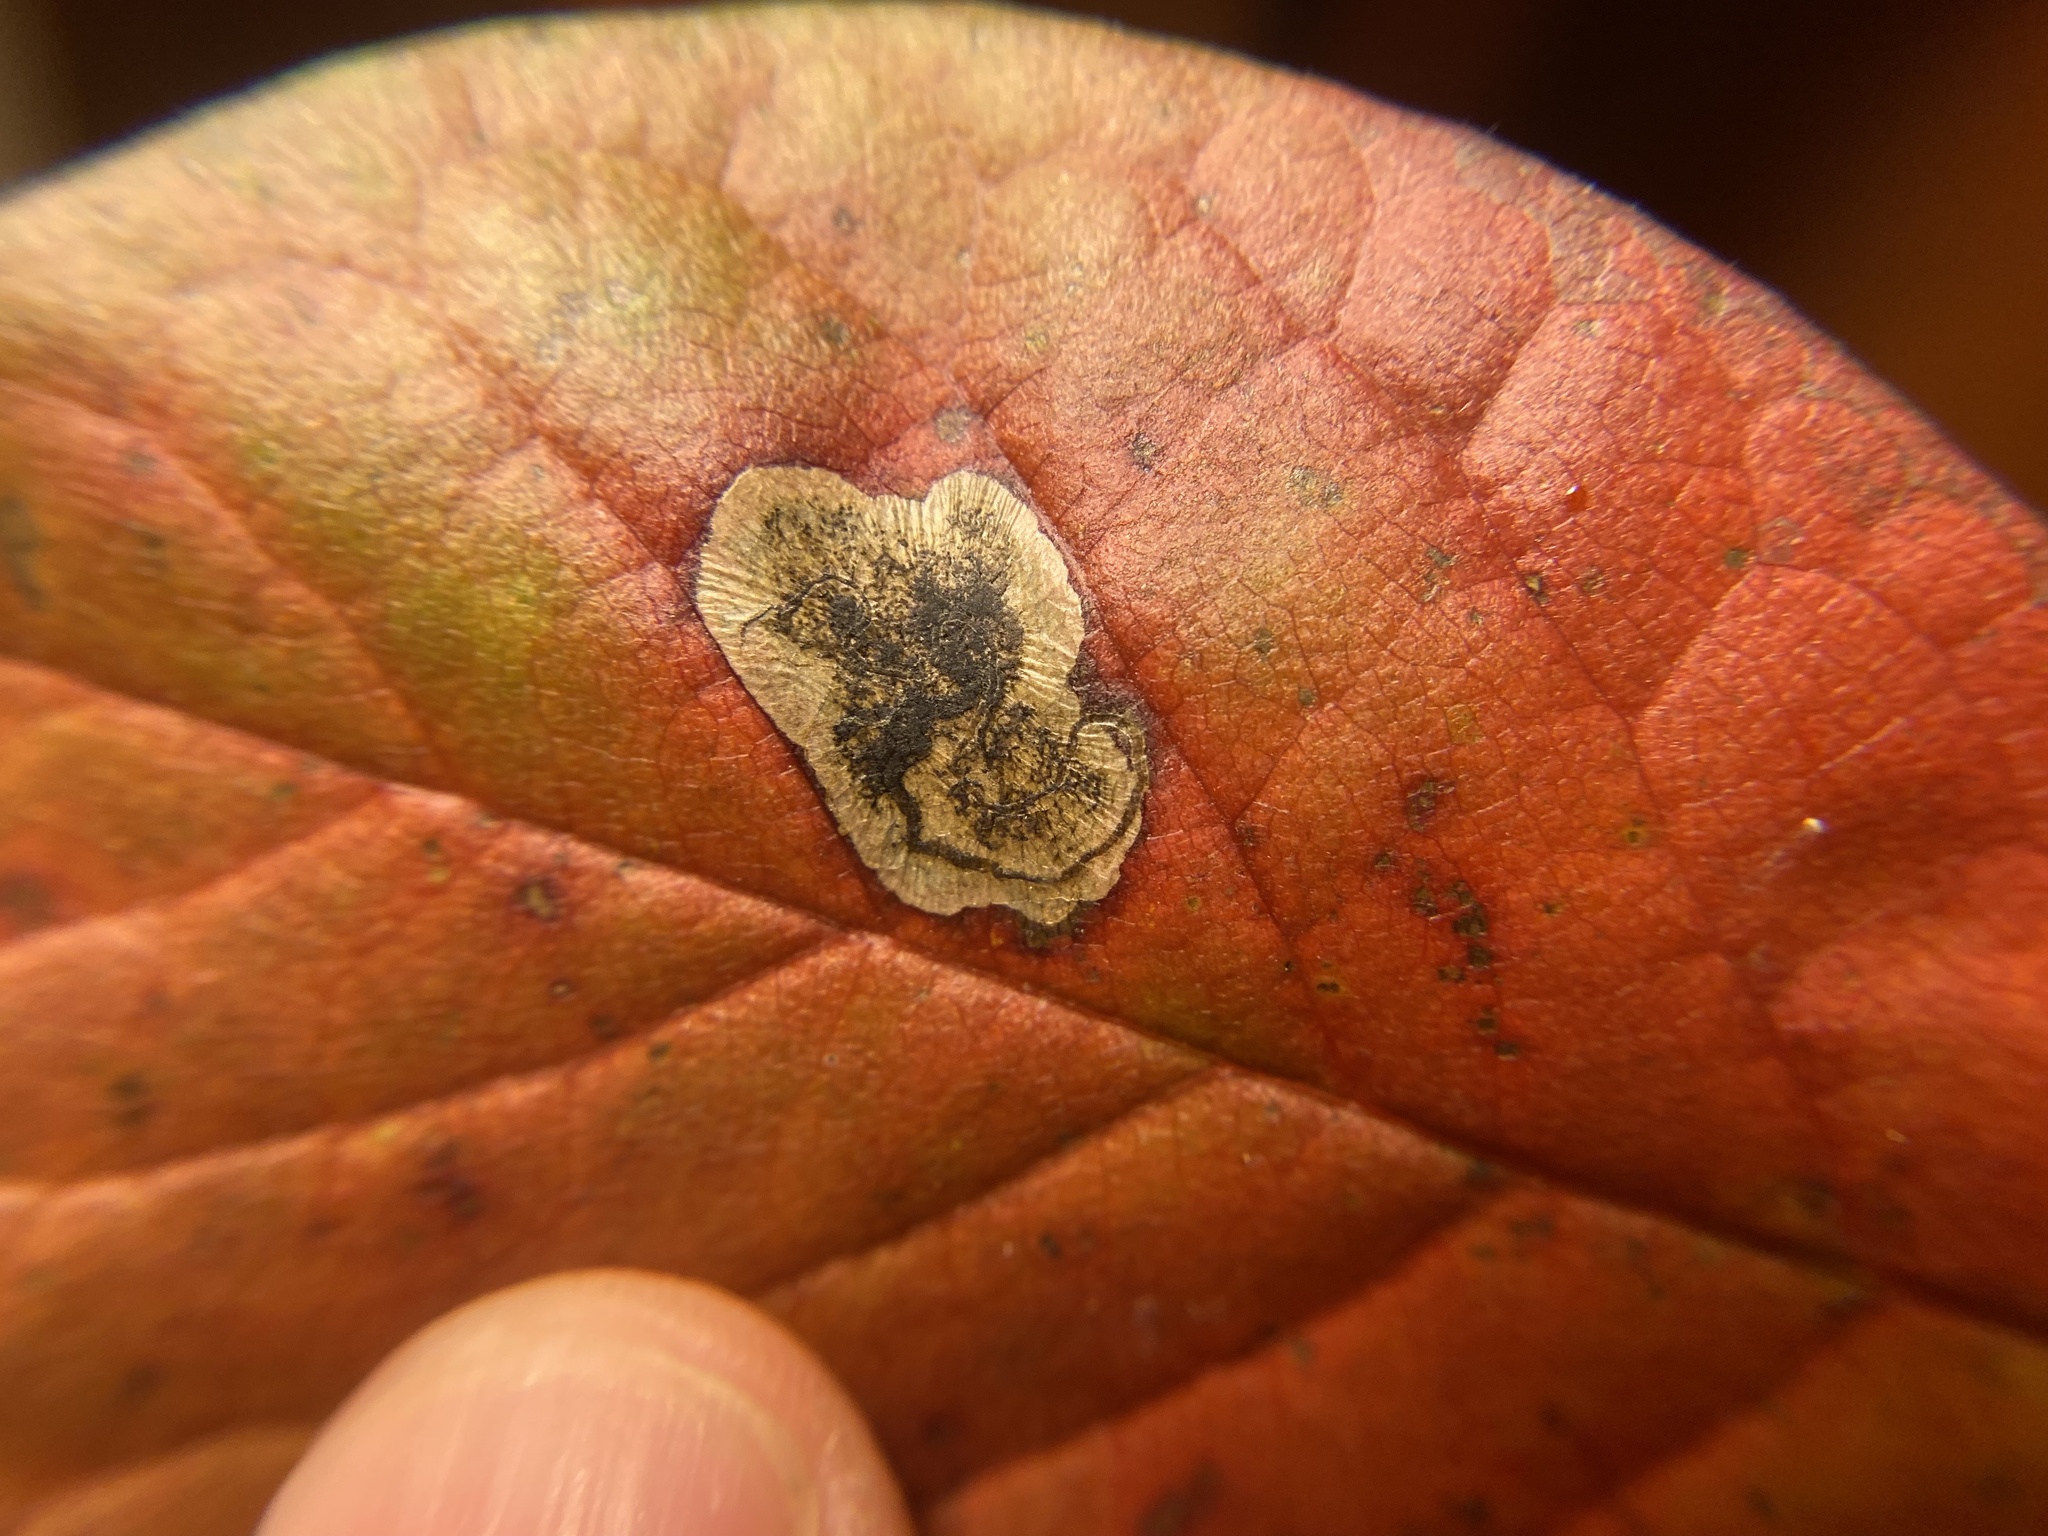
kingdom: Animalia
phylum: Arthropoda
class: Insecta
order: Lepidoptera
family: Nepticulidae
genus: Ectoedemia
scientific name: Ectoedemia nyssaefoliella
